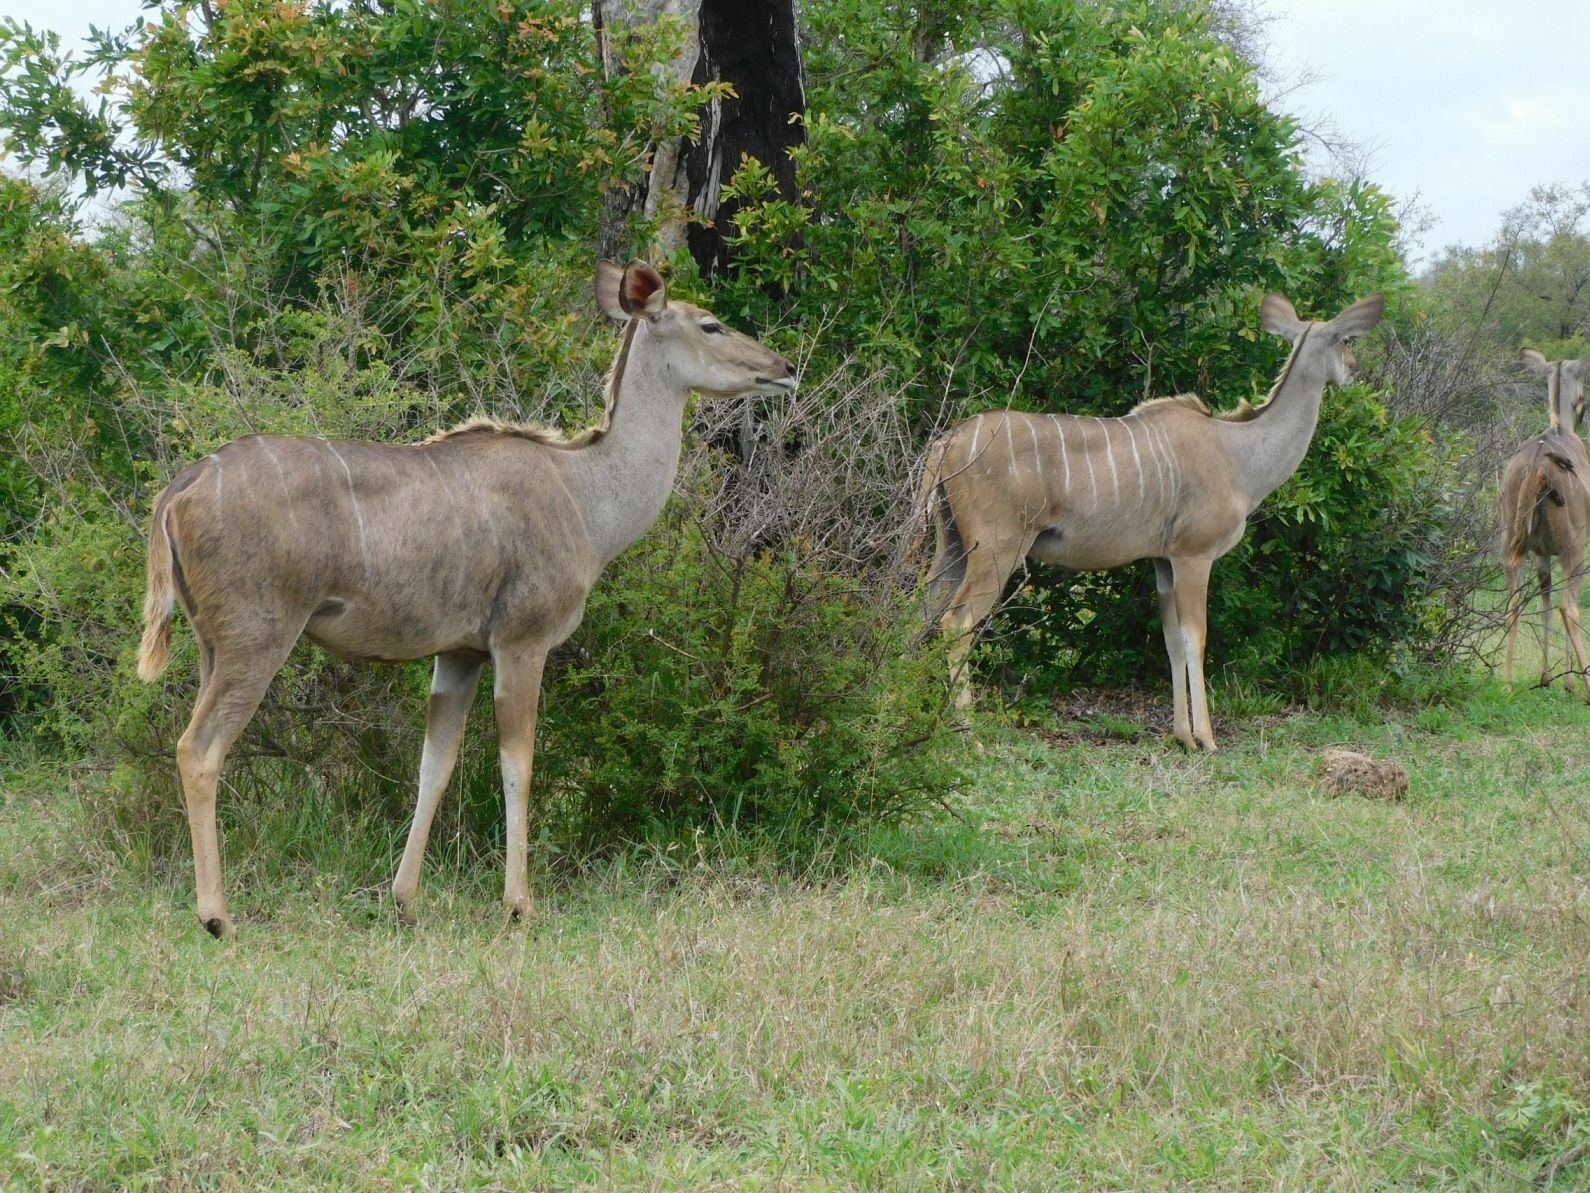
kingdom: Animalia
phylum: Chordata
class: Mammalia
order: Artiodactyla
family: Bovidae
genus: Tragelaphus
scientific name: Tragelaphus strepsiceros
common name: Greater kudu
